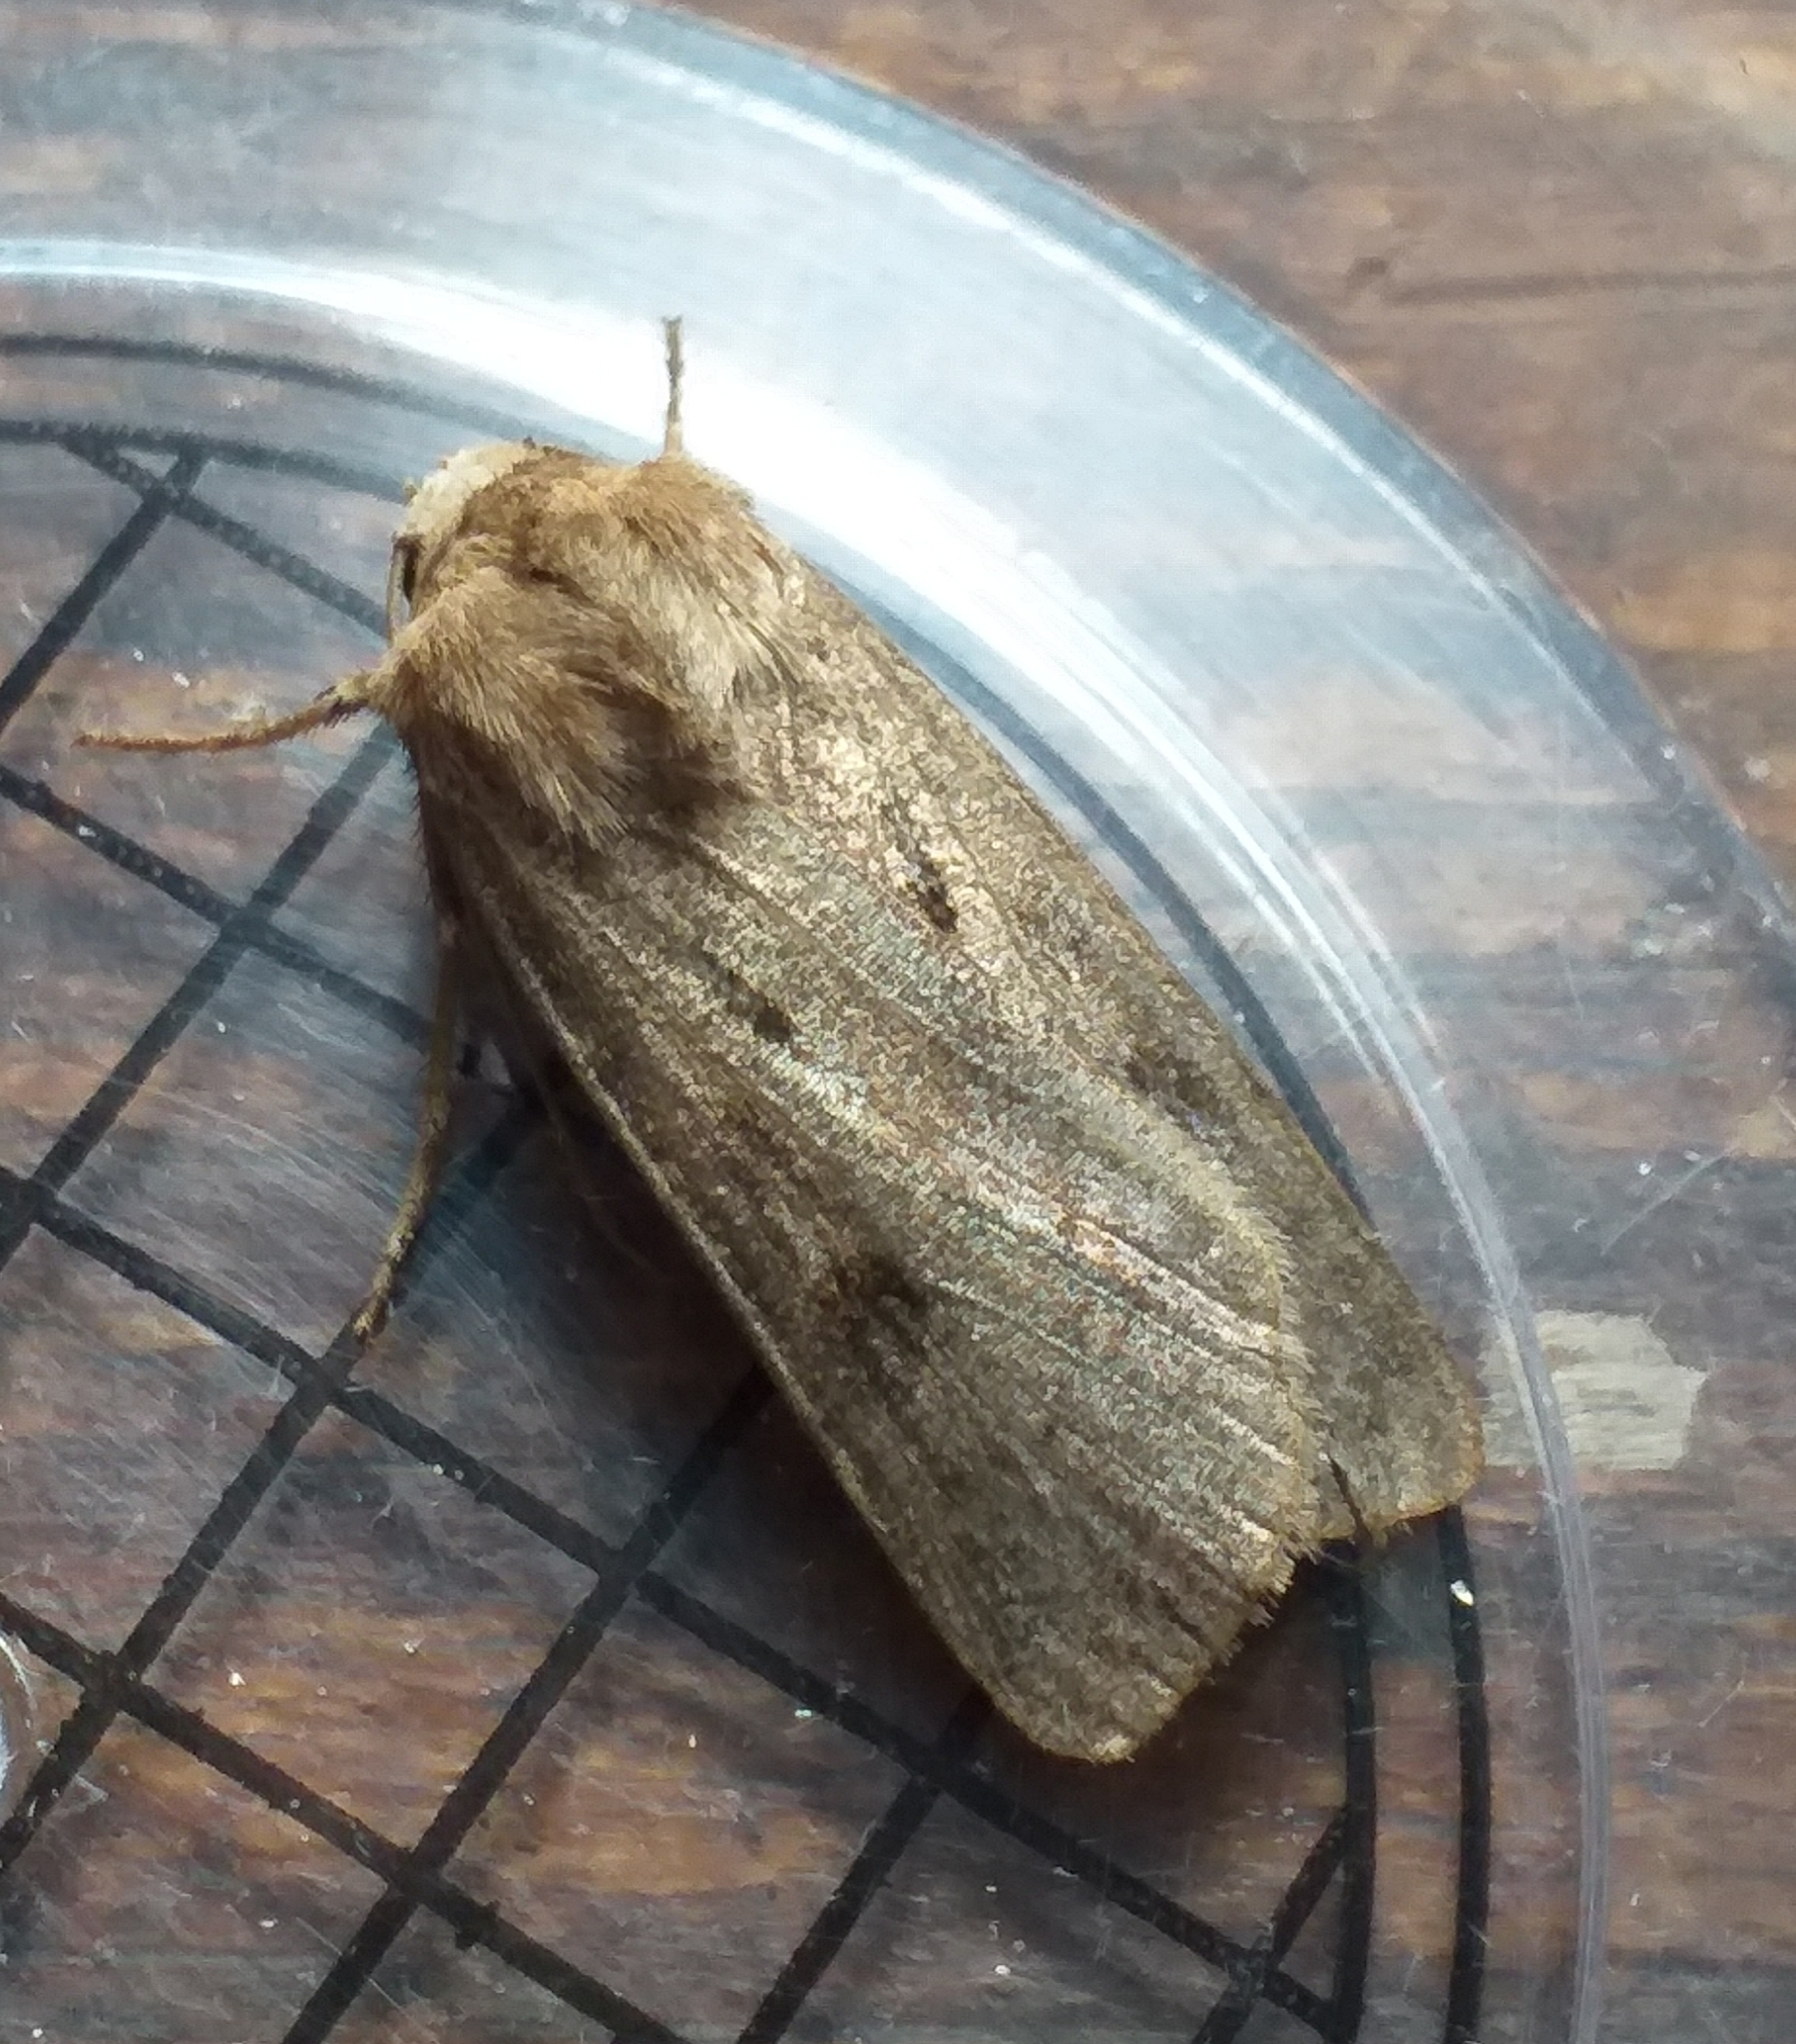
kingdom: Animalia
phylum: Arthropoda
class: Insecta
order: Lepidoptera
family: Noctuidae
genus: Agrotis
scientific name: Agrotis exclamationis
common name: Heart and dart
